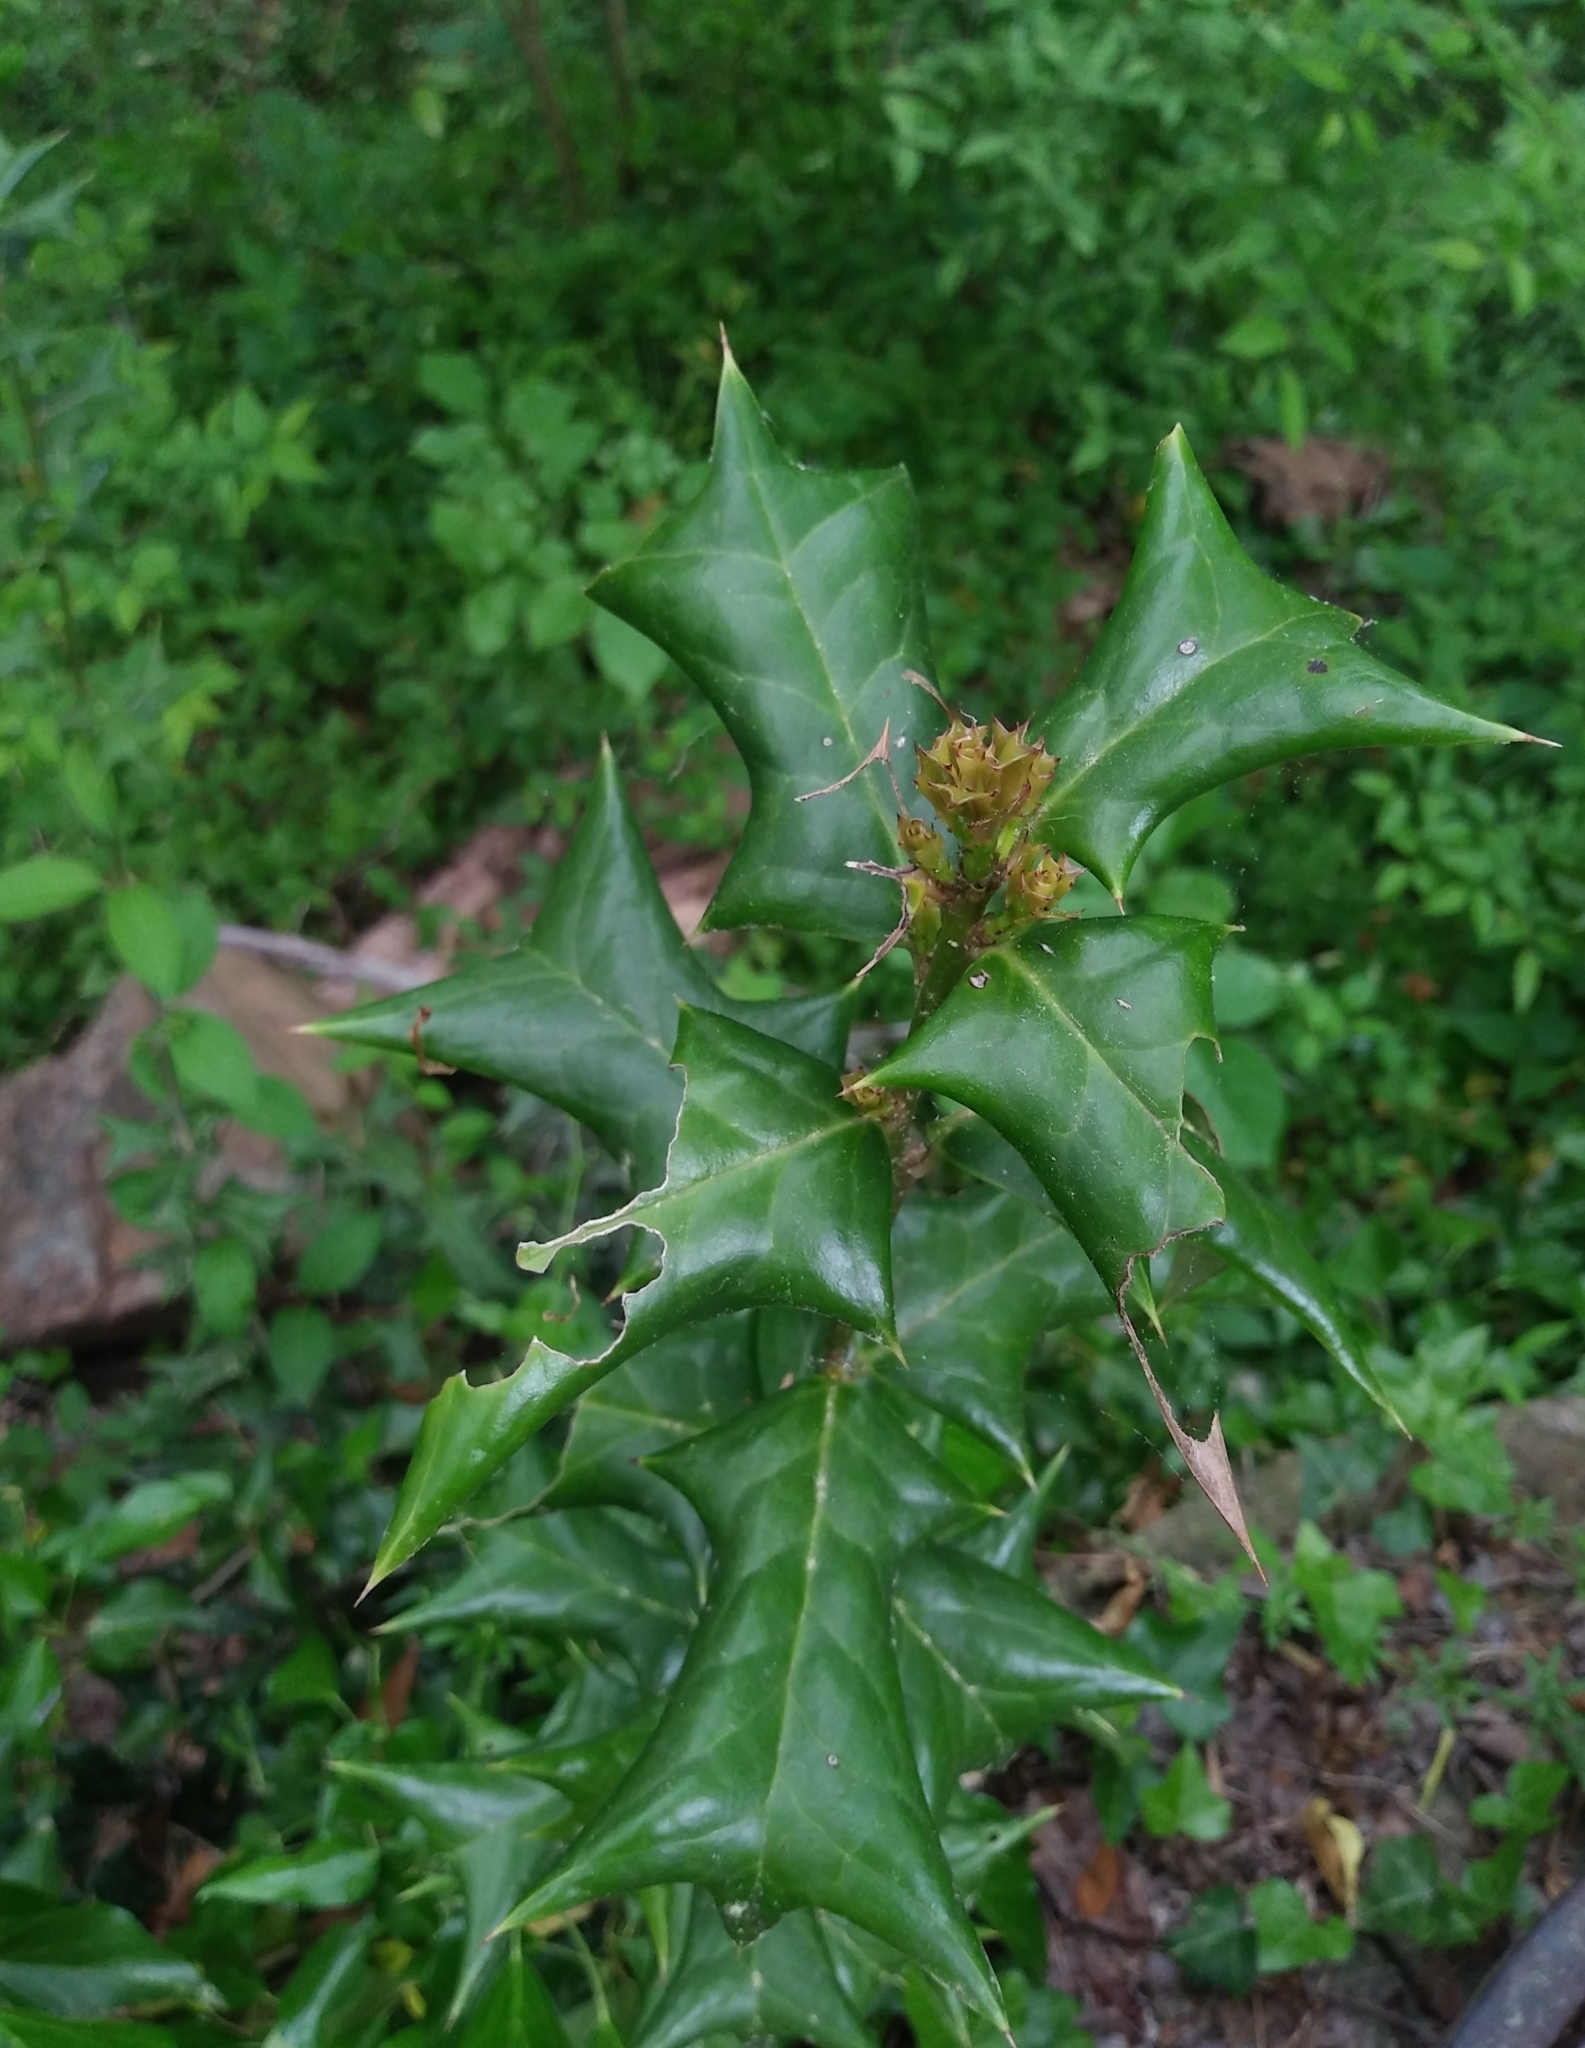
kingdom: Plantae
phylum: Tracheophyta
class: Magnoliopsida
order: Aquifoliales
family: Aquifoliaceae
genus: Ilex
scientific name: Ilex cornuta
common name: Chinese holly
